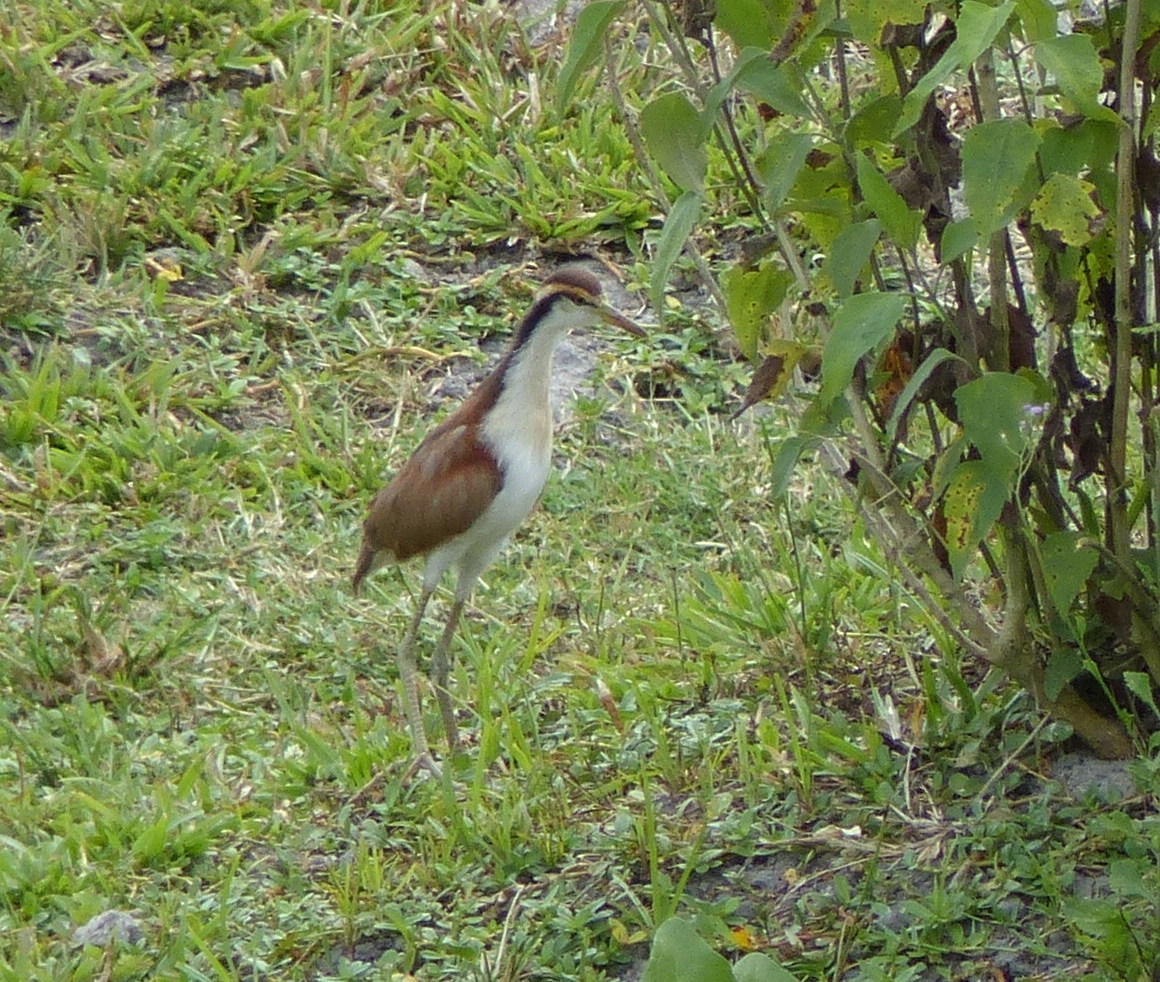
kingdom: Animalia
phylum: Chordata
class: Aves
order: Charadriiformes
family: Jacanidae
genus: Jacana
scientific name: Jacana jacana
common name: Wattled jacana
